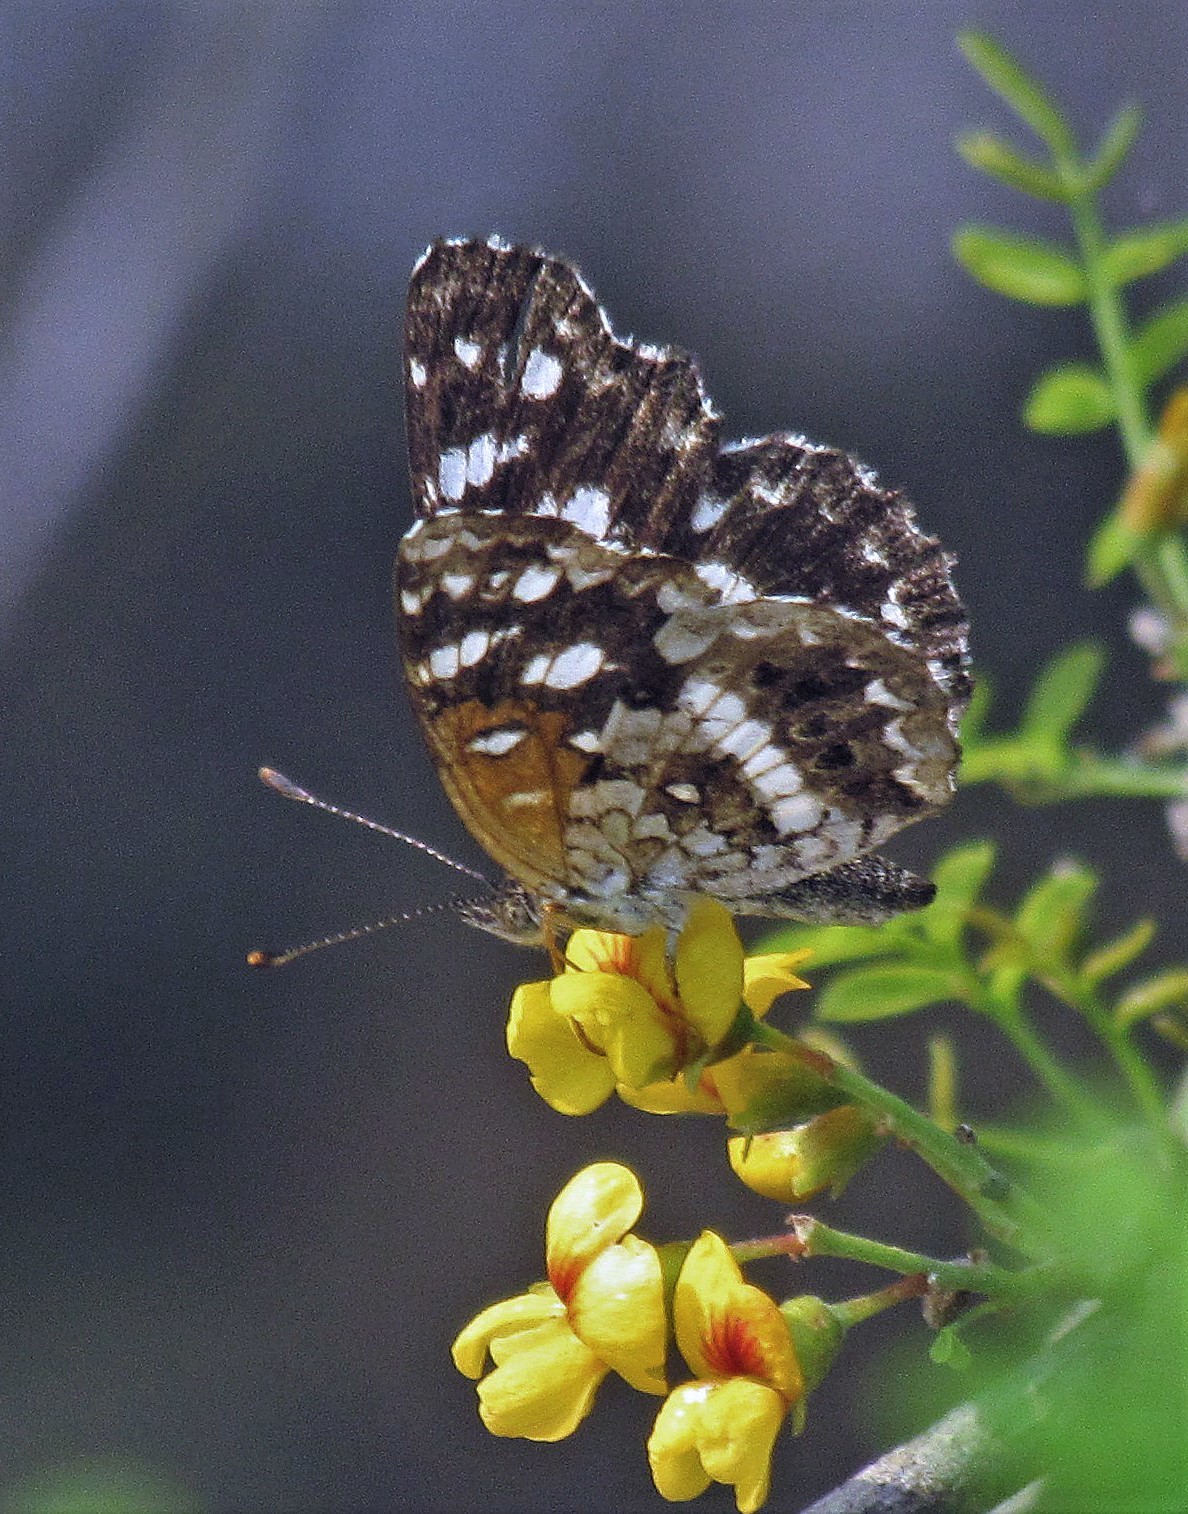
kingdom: Animalia
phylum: Arthropoda
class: Insecta
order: Lepidoptera
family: Nymphalidae
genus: Ortilia
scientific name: Ortilia ithra
